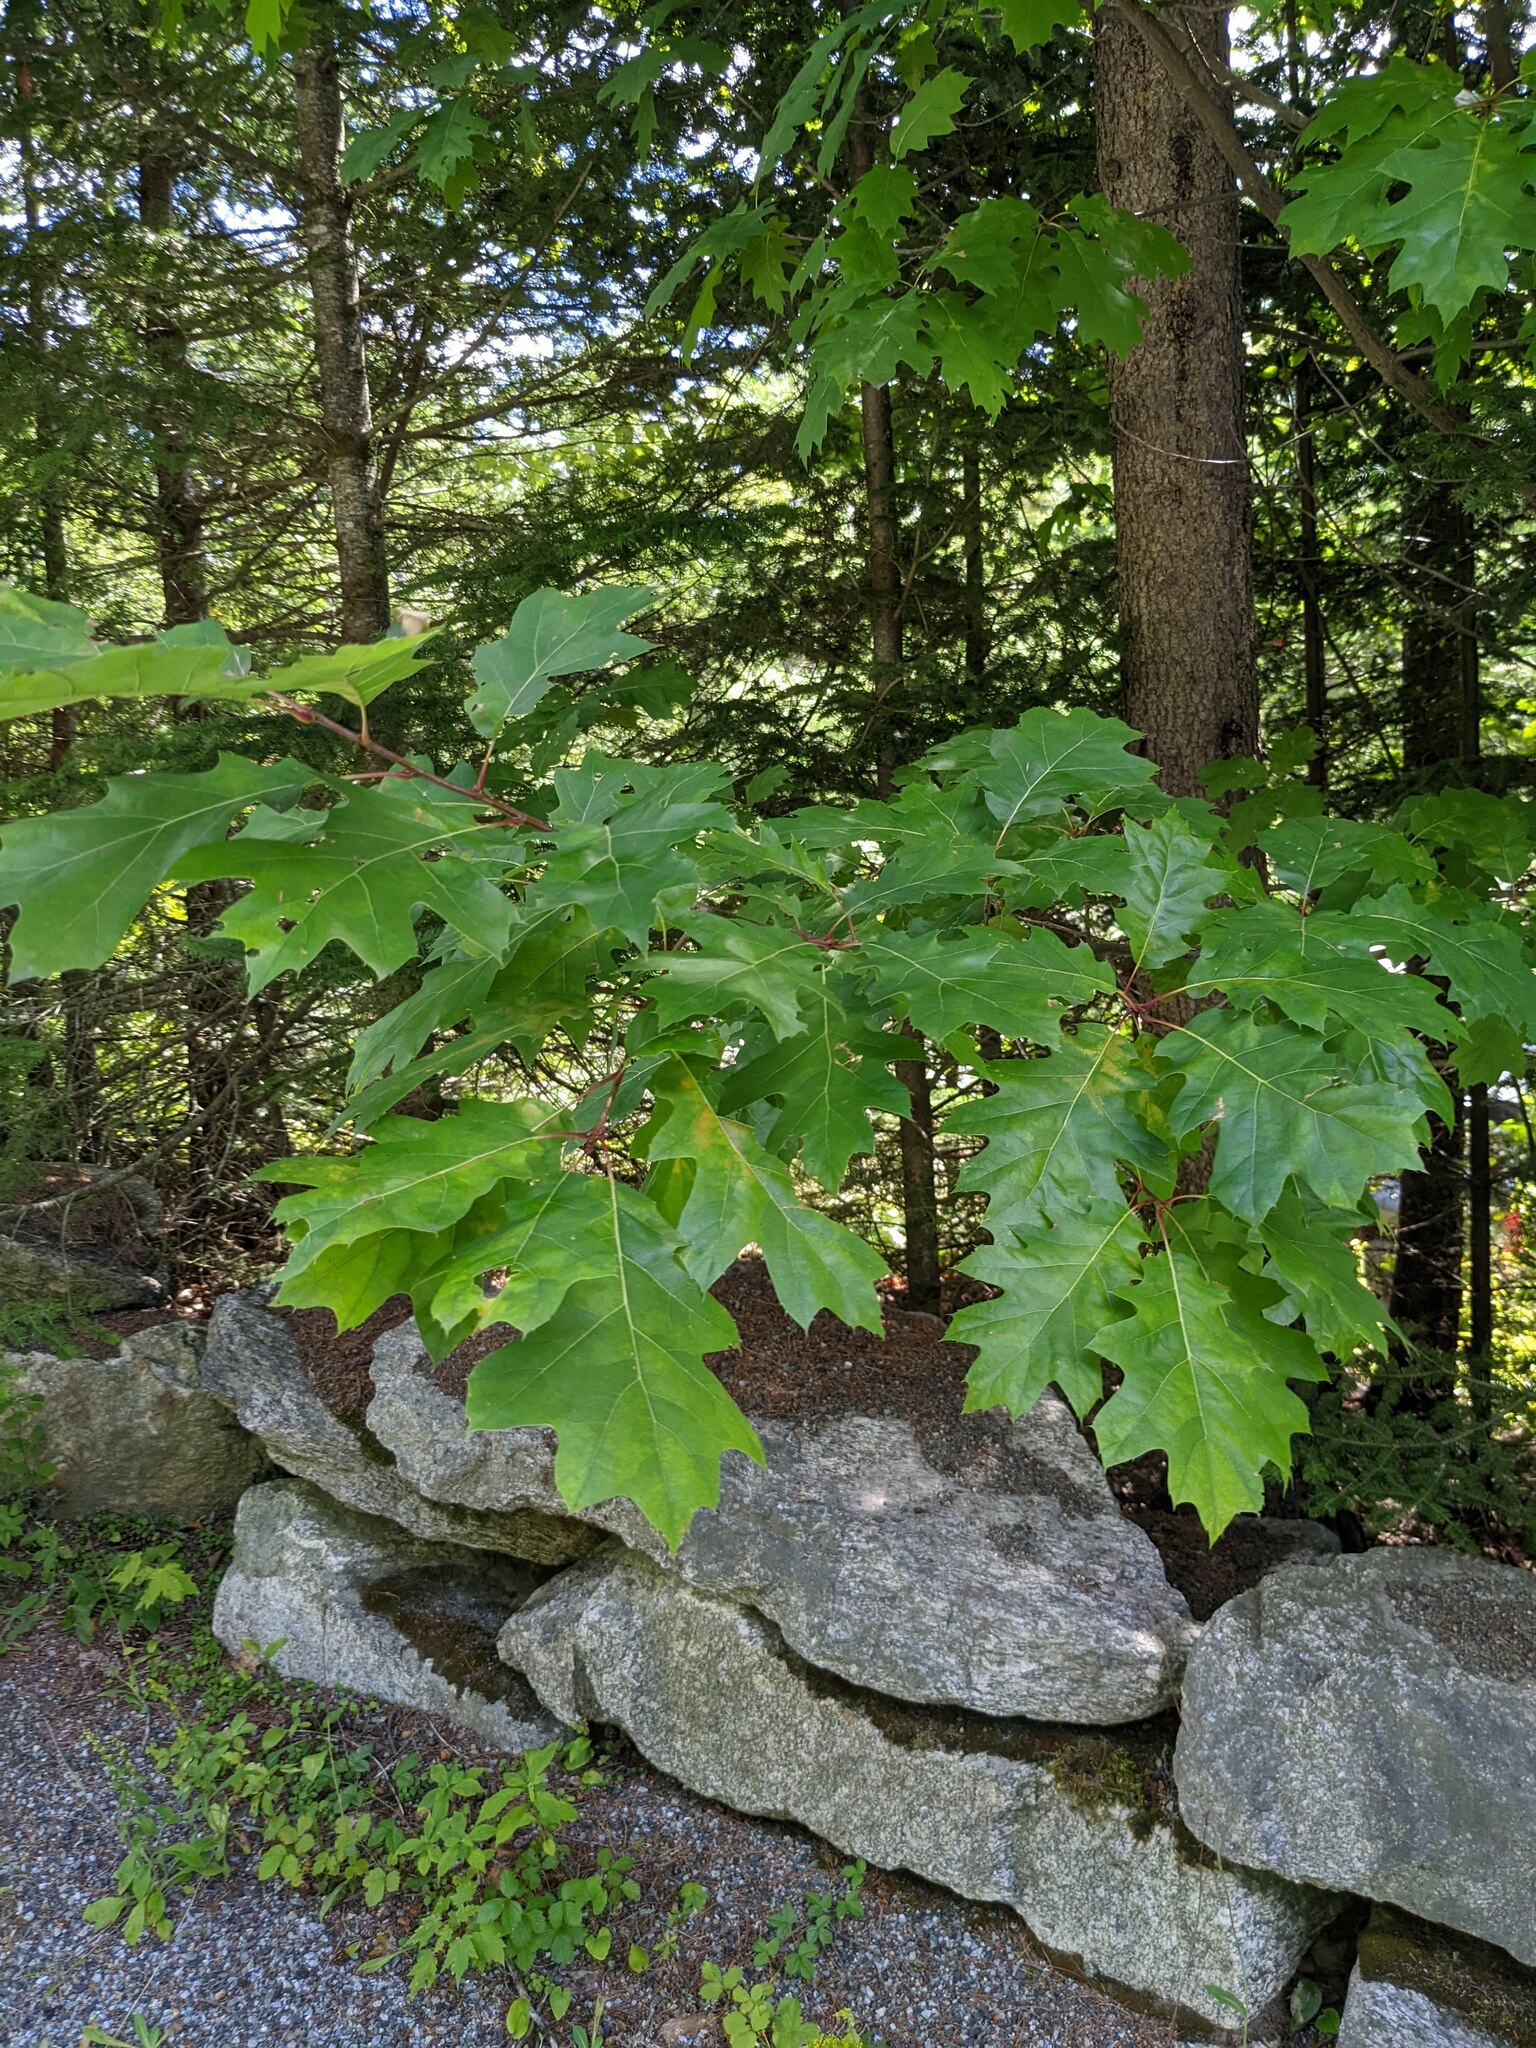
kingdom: Plantae
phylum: Tracheophyta
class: Magnoliopsida
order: Fagales
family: Fagaceae
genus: Quercus
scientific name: Quercus rubra
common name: Red oak
